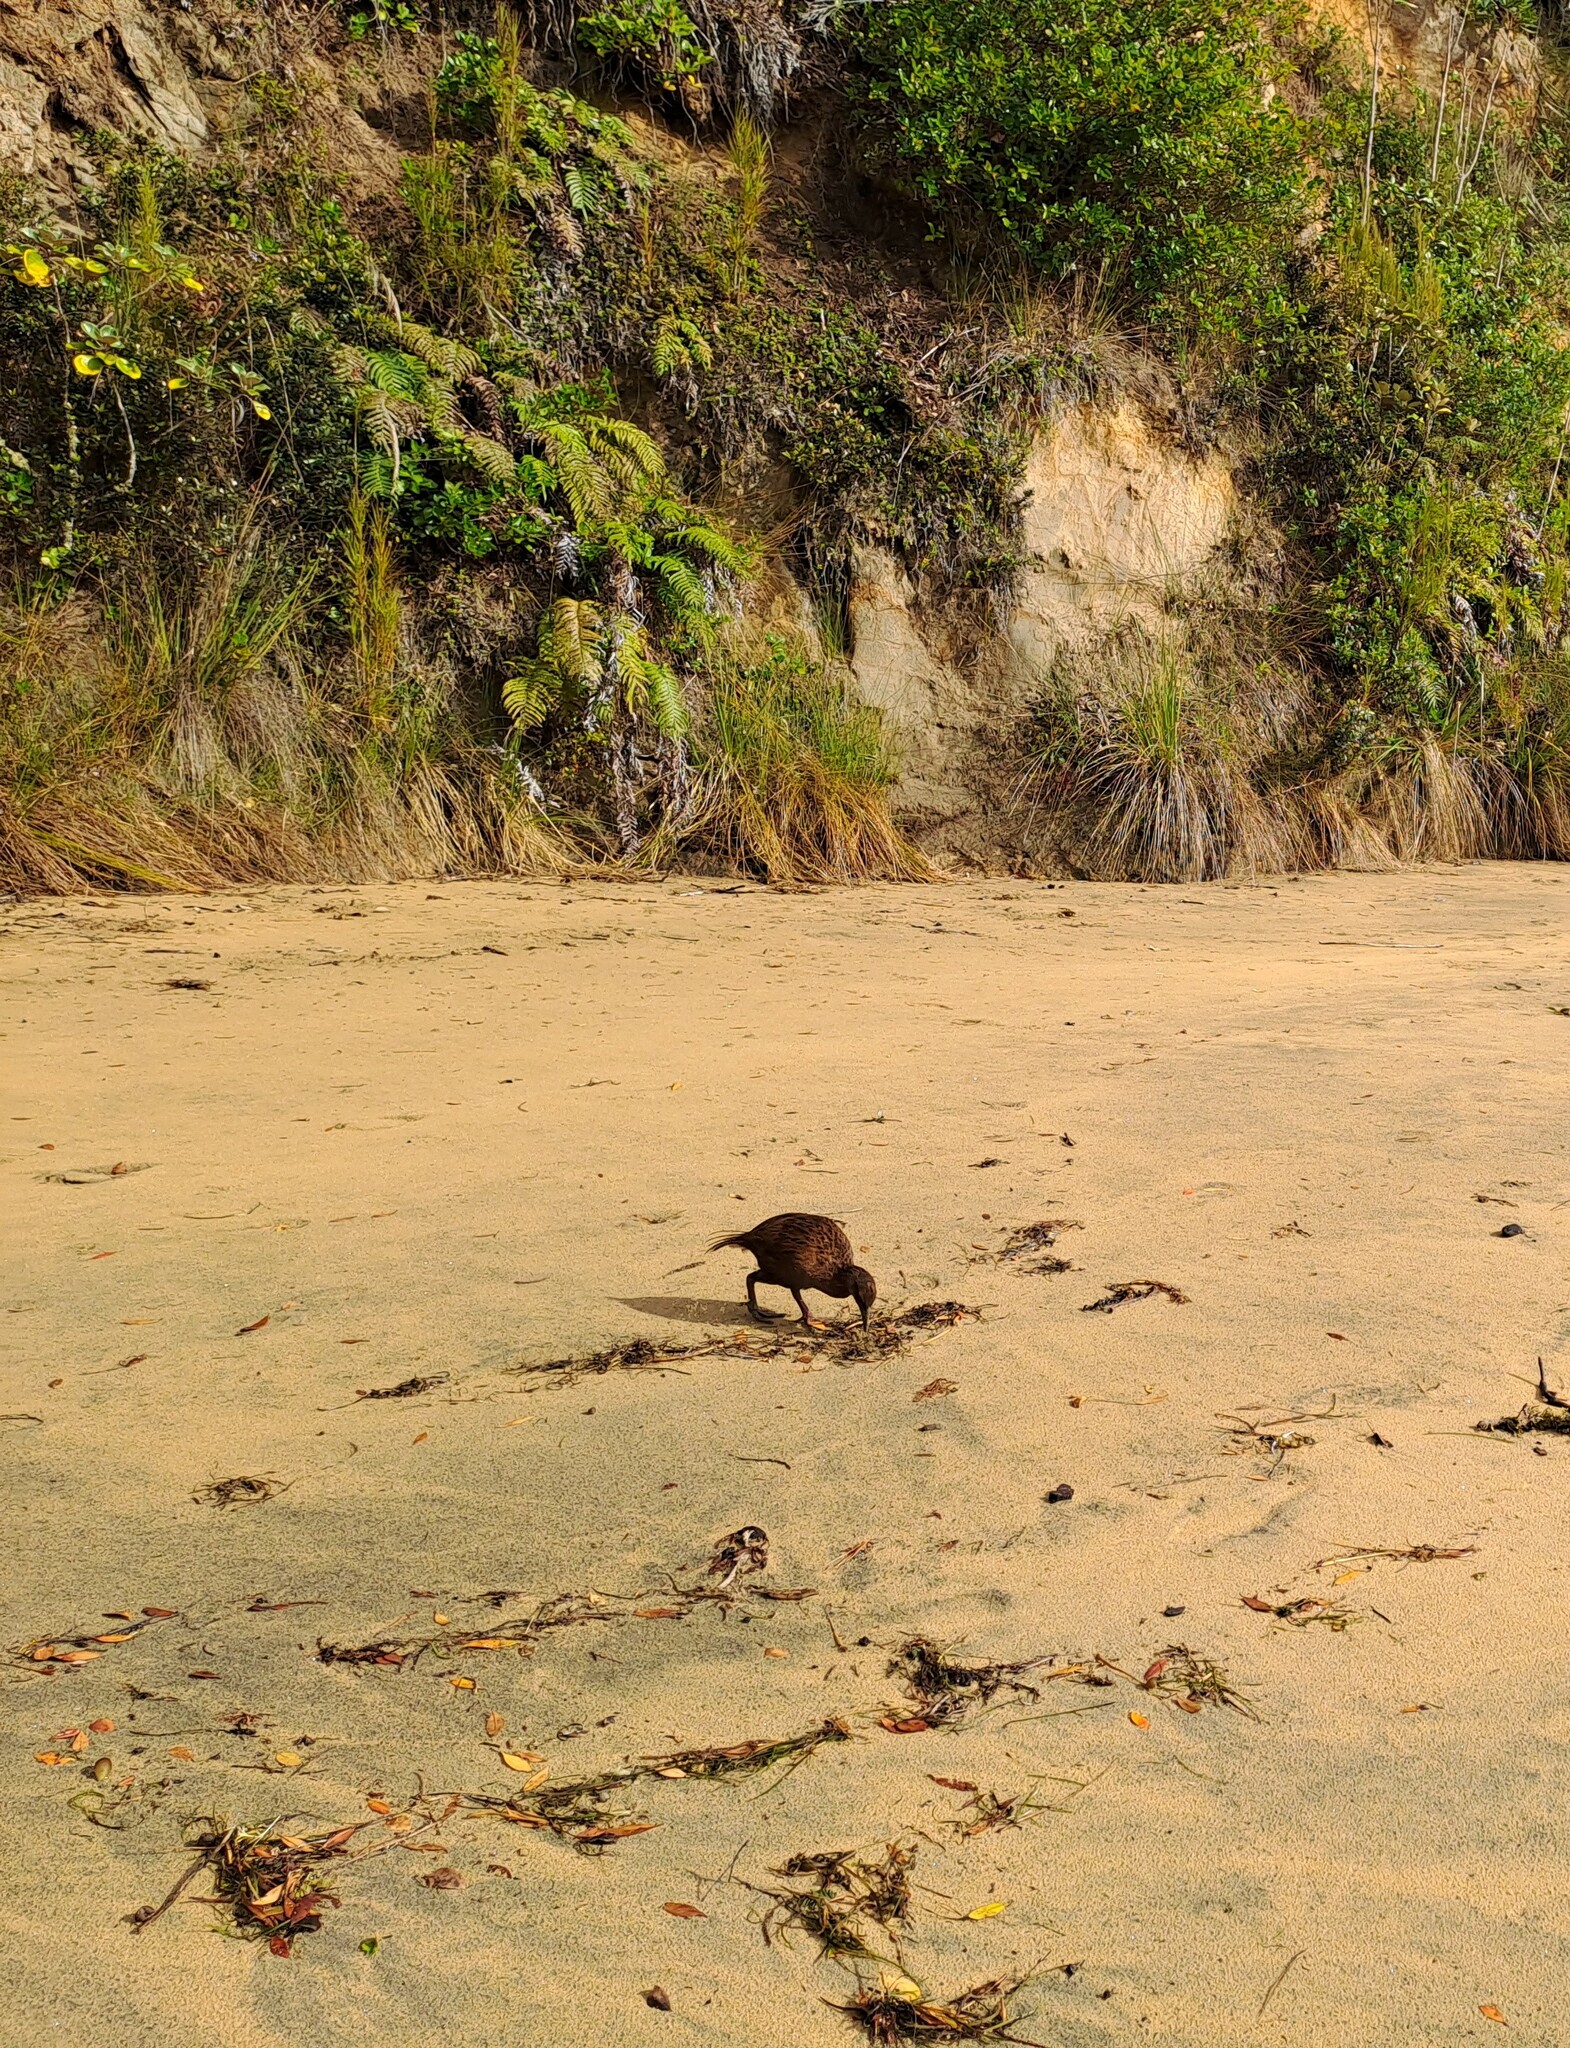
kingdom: Animalia
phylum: Chordata
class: Aves
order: Gruiformes
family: Rallidae
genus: Gallirallus
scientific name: Gallirallus australis
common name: Weka
